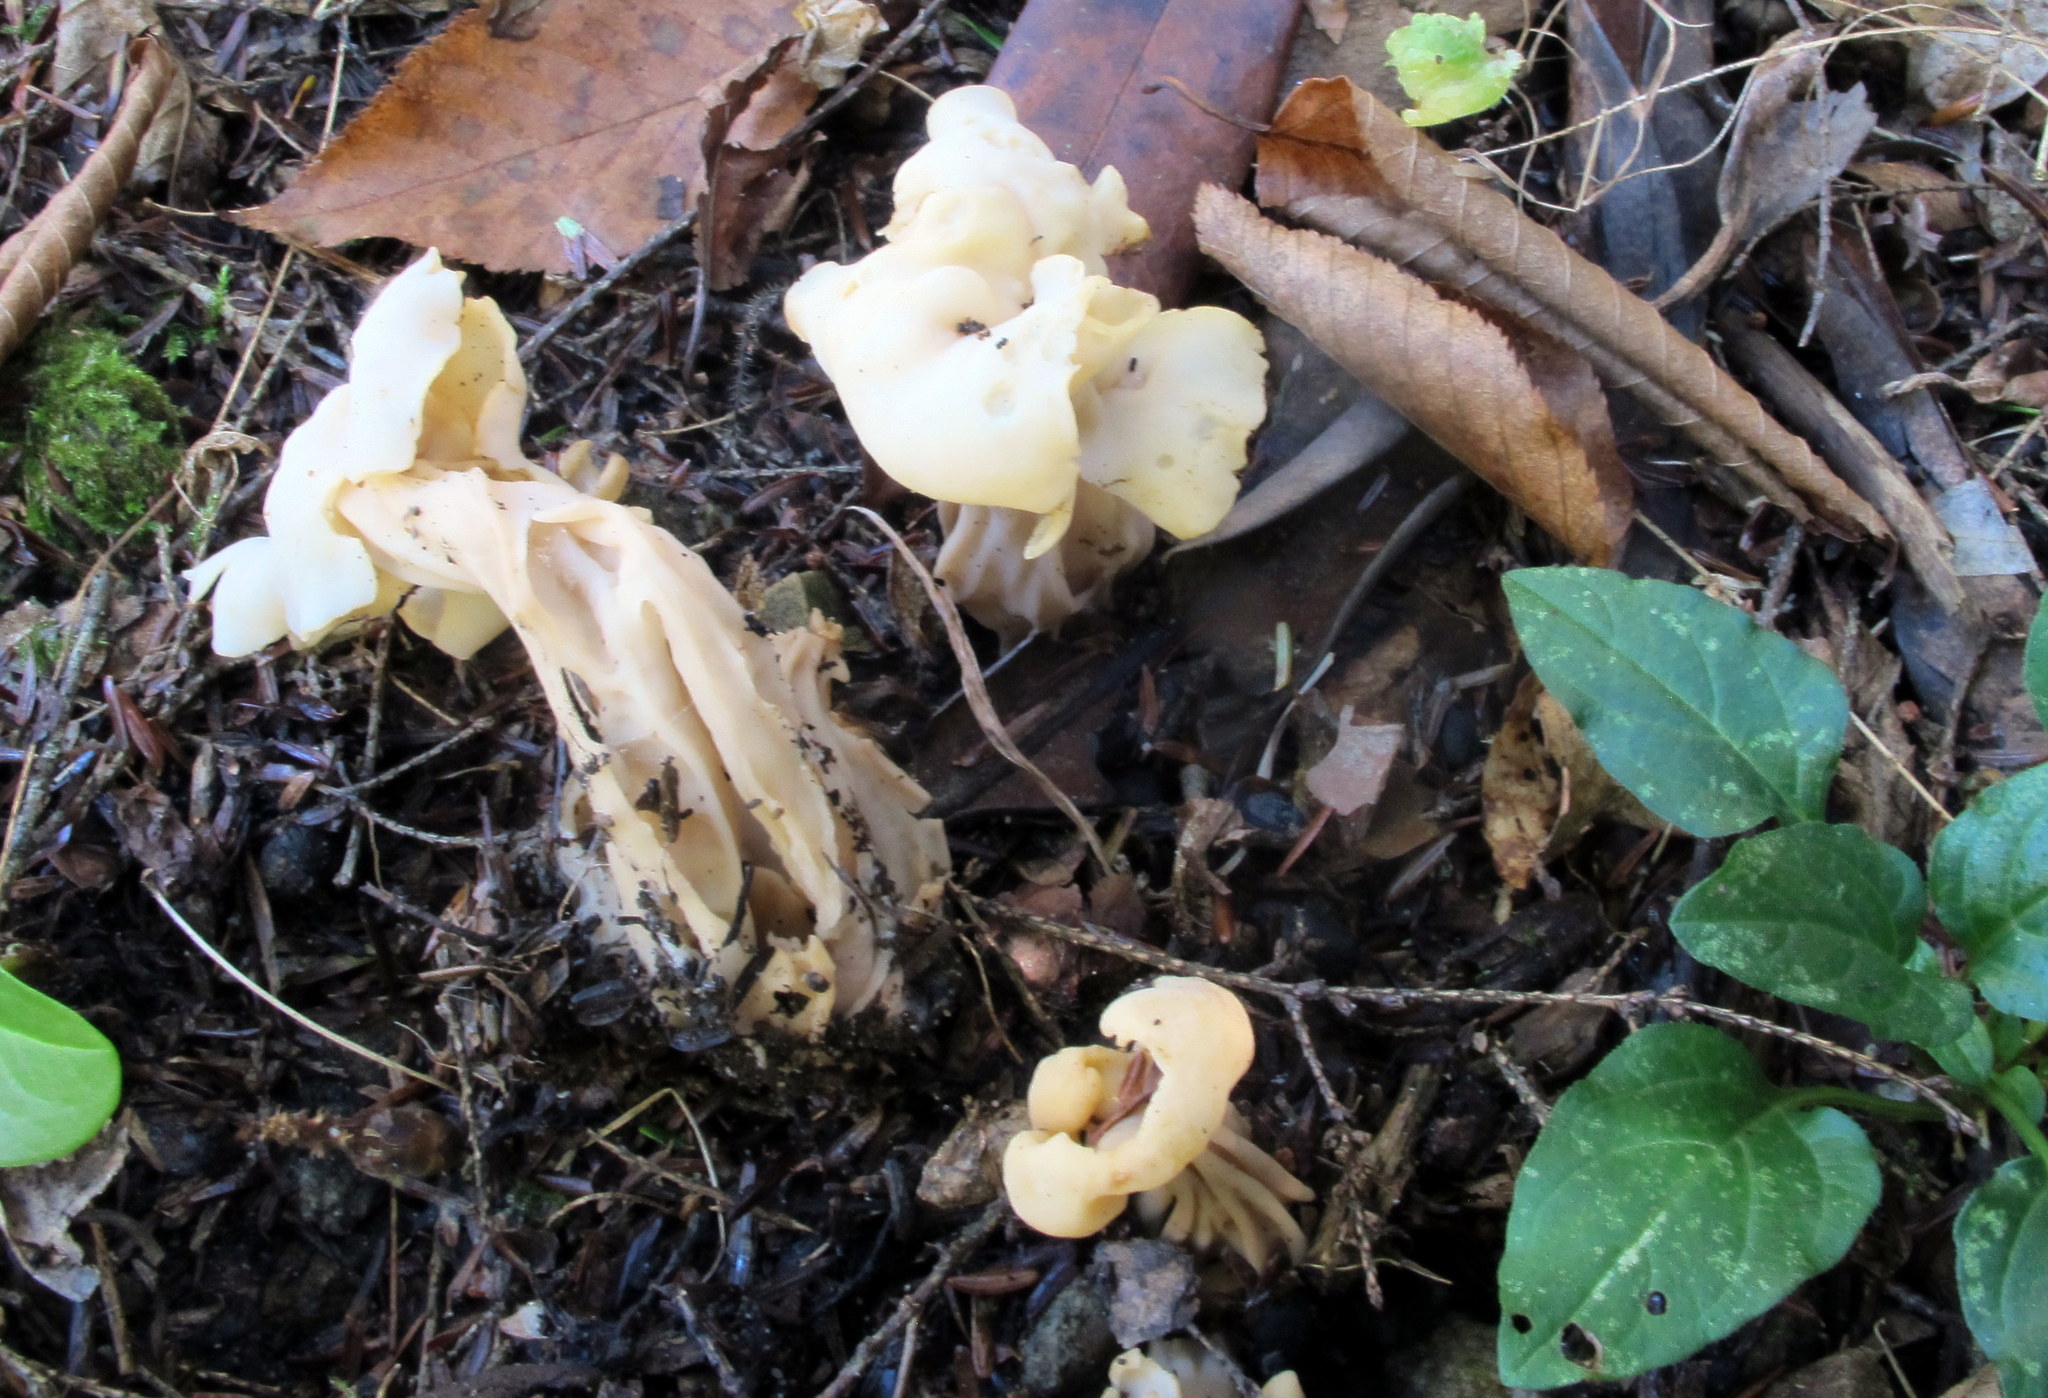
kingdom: Fungi
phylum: Ascomycota
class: Pezizomycetes
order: Pezizales
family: Helvellaceae
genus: Helvella
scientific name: Helvella crispa
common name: White saddle
